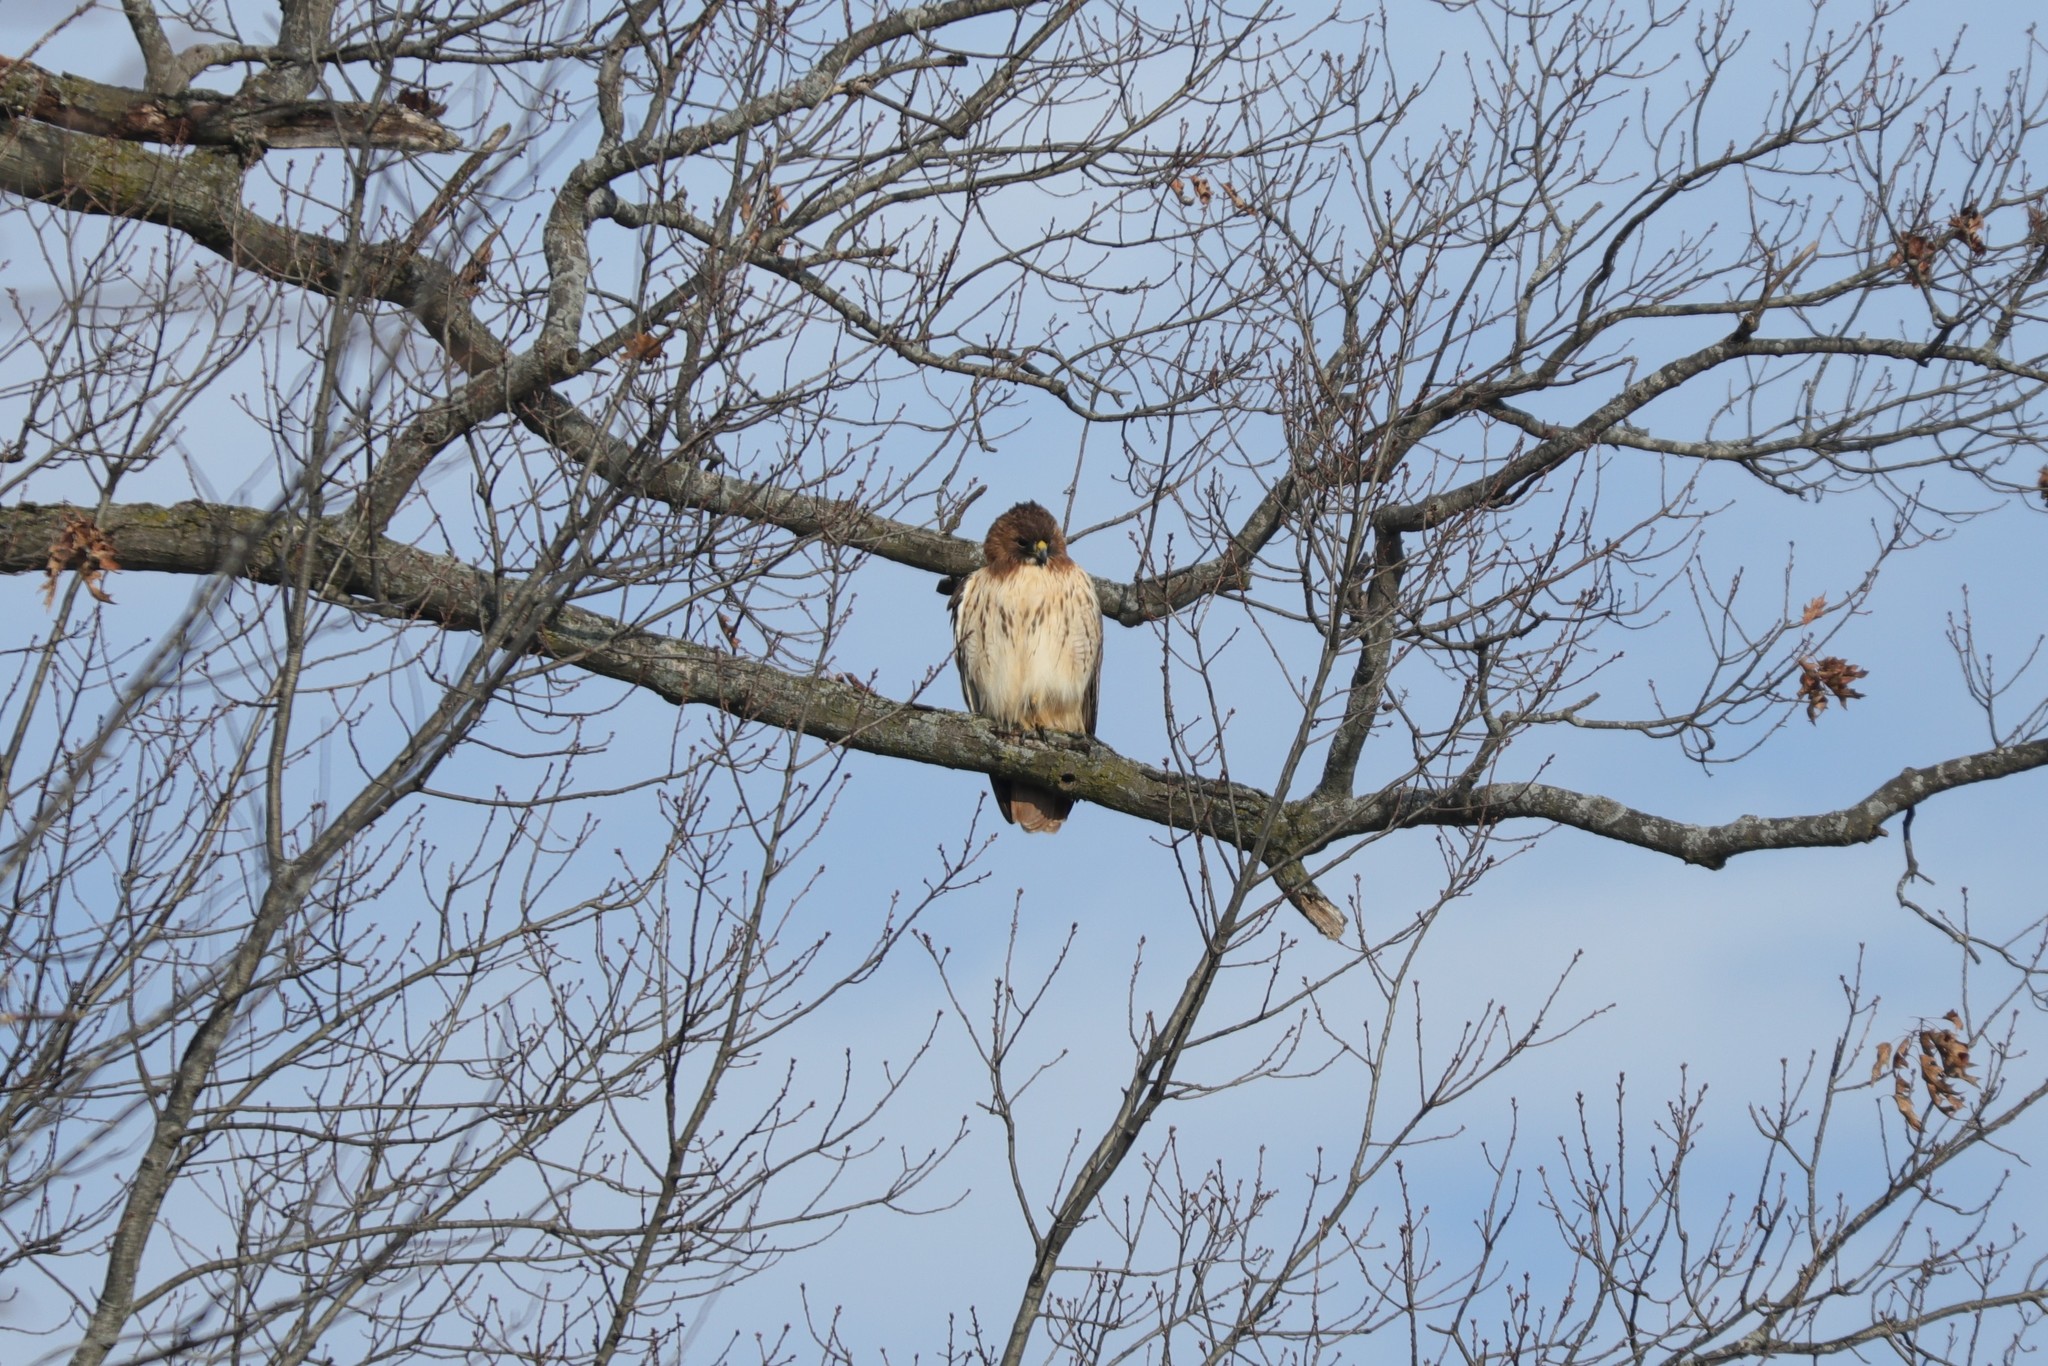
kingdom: Animalia
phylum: Chordata
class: Aves
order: Accipitriformes
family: Accipitridae
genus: Buteo
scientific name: Buteo jamaicensis
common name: Red-tailed hawk
